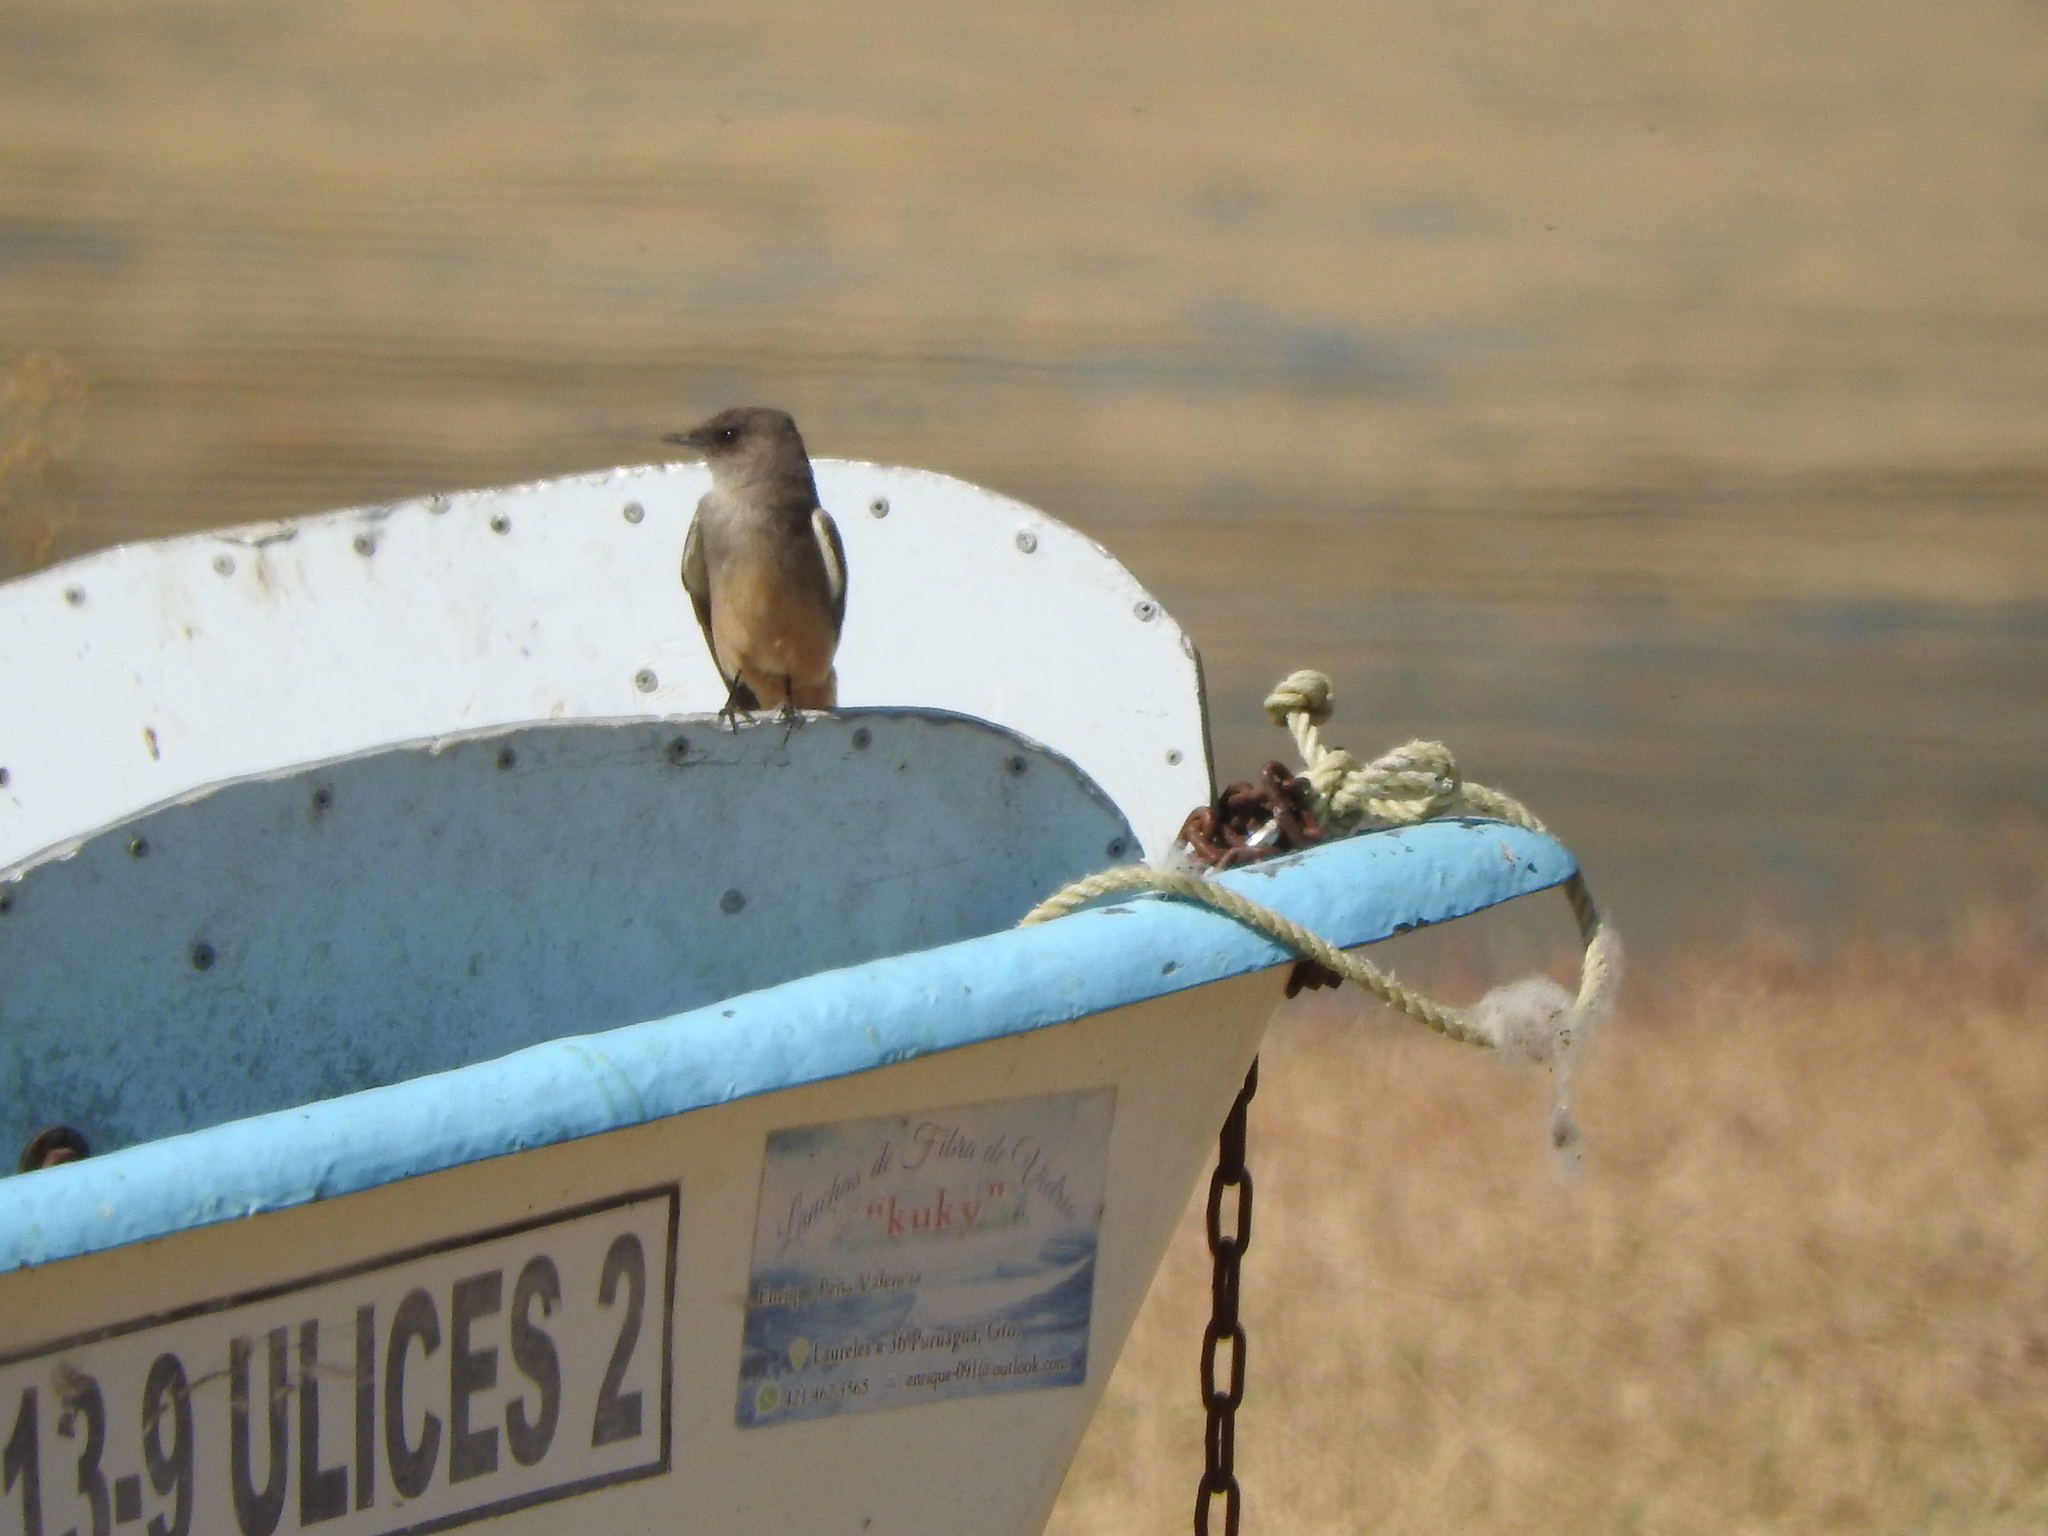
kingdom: Animalia
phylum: Chordata
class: Aves
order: Passeriformes
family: Tyrannidae
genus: Sayornis
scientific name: Sayornis saya
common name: Say's phoebe
